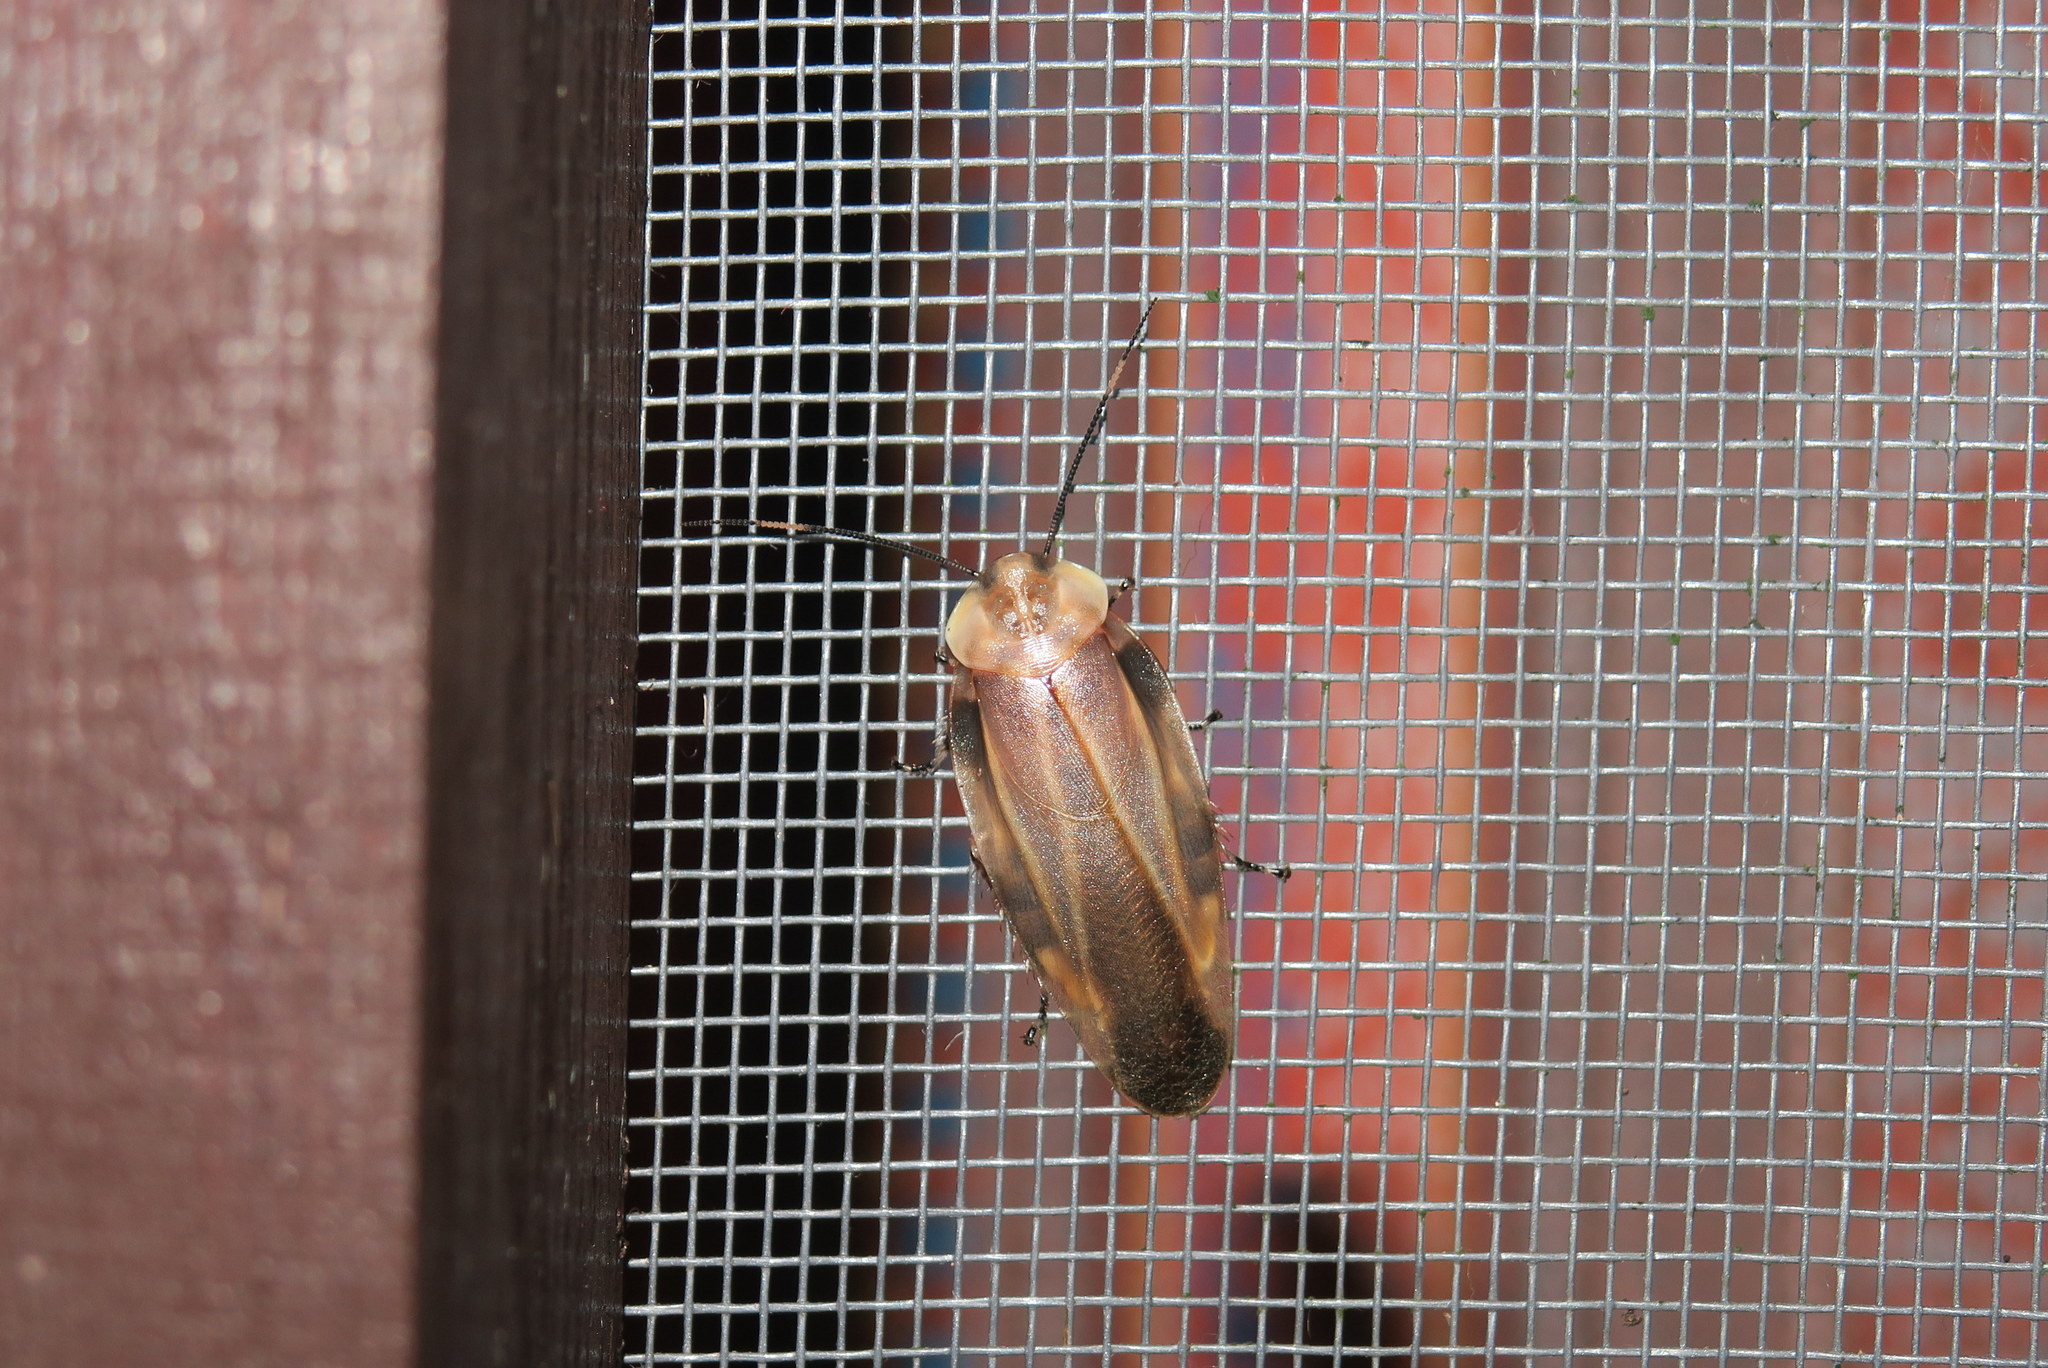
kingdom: Animalia
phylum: Arthropoda
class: Insecta
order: Blattodea
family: Blaberidae
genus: Achroblatta
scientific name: Achroblatta luteola
